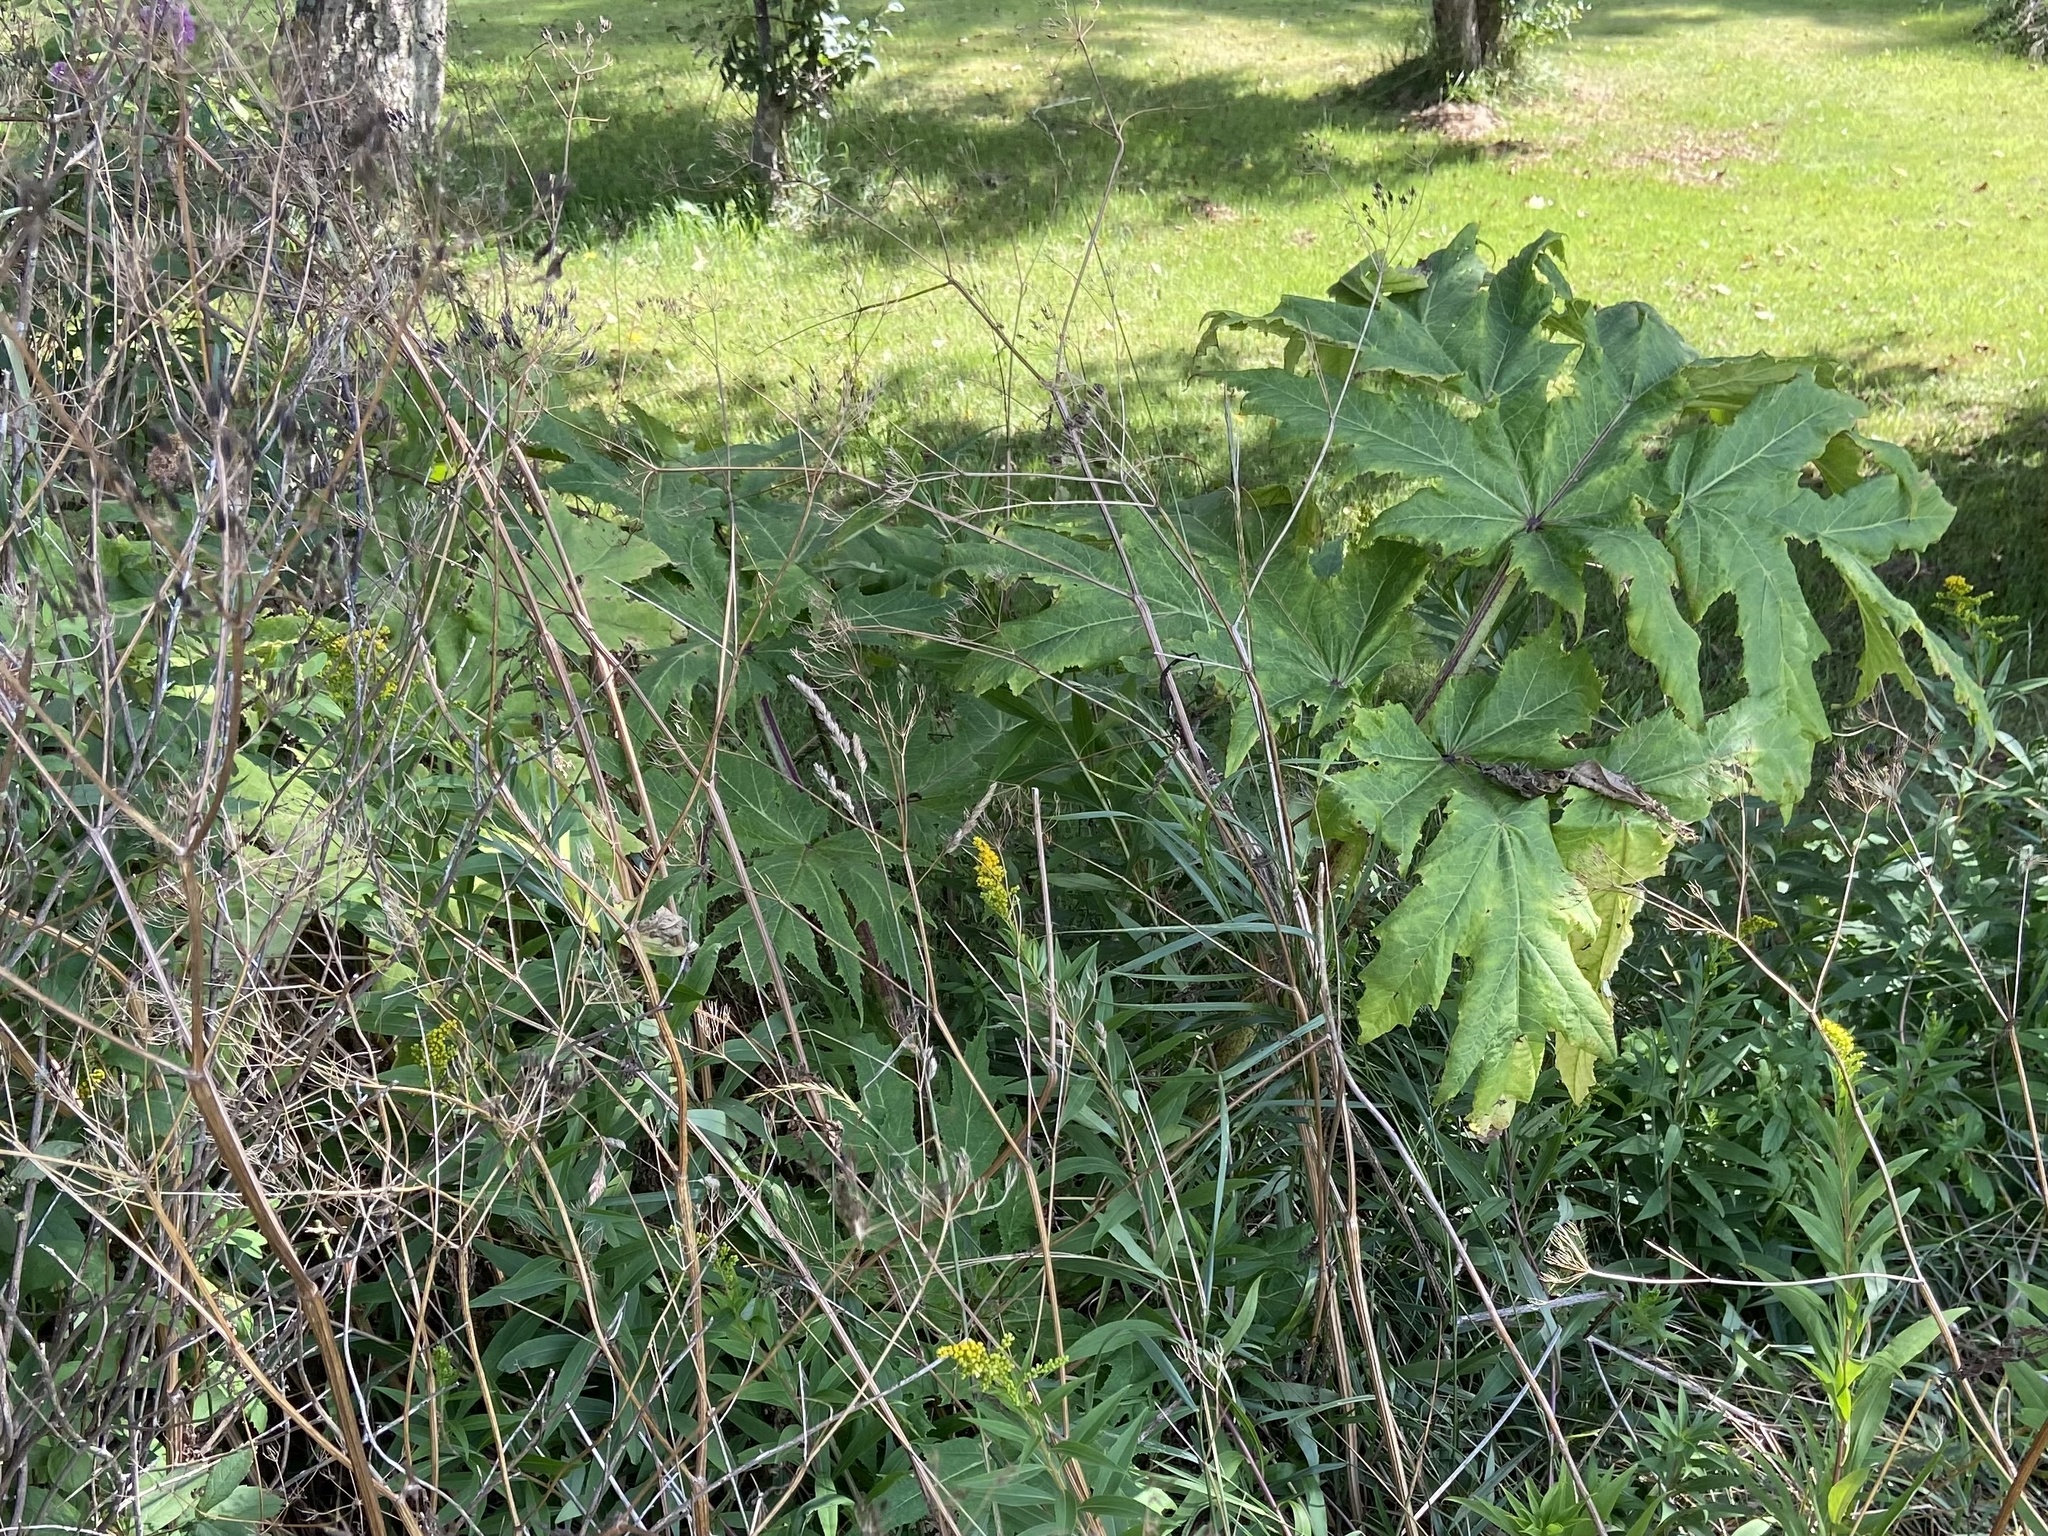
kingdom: Plantae
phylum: Tracheophyta
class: Magnoliopsida
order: Apiales
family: Apiaceae
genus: Heracleum
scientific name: Heracleum mantegazzianum
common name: Giant hogweed
